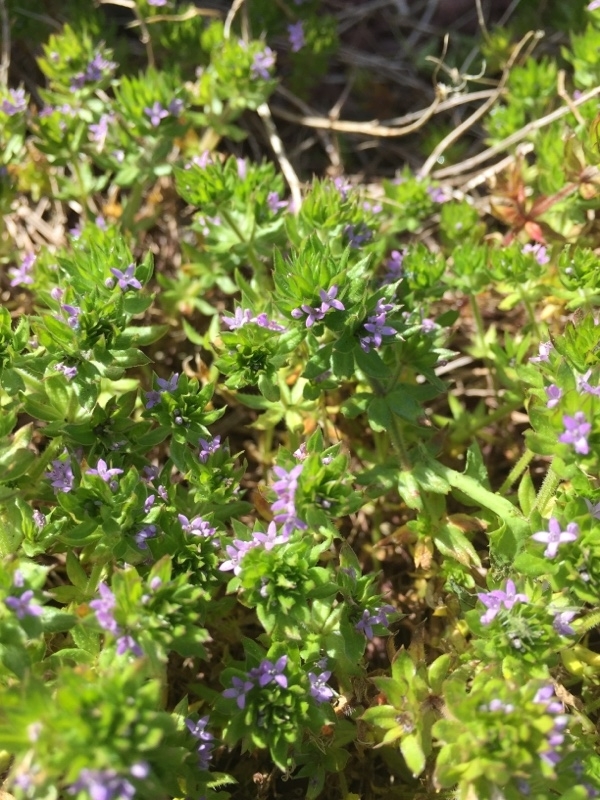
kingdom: Plantae
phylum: Tracheophyta
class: Magnoliopsida
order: Gentianales
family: Rubiaceae
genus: Sherardia
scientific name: Sherardia arvensis
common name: Field madder
